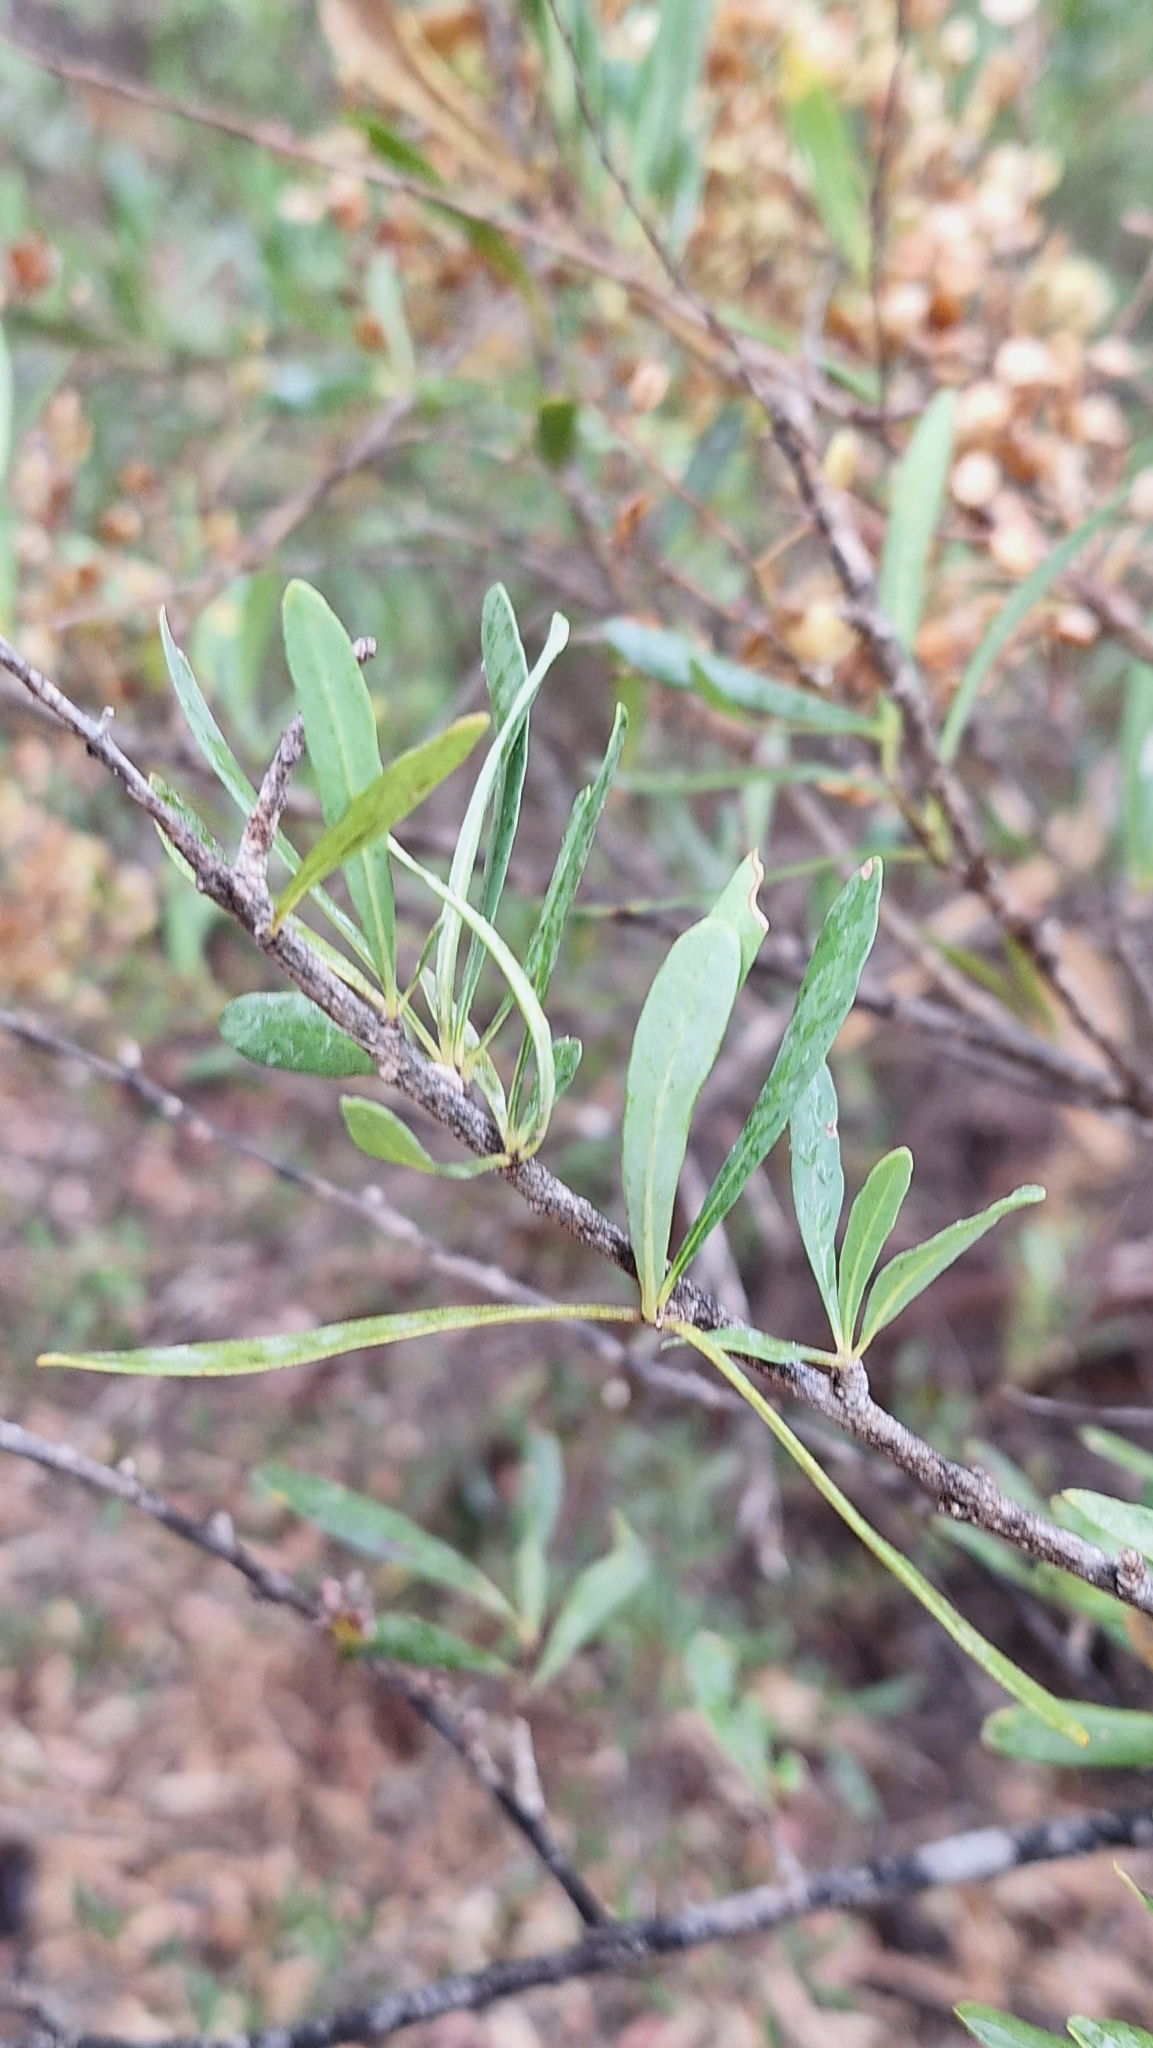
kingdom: Plantae
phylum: Tracheophyta
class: Magnoliopsida
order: Apiales
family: Pittosporaceae
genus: Bursaria
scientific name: Bursaria spinosa
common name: Australian blackthorn
